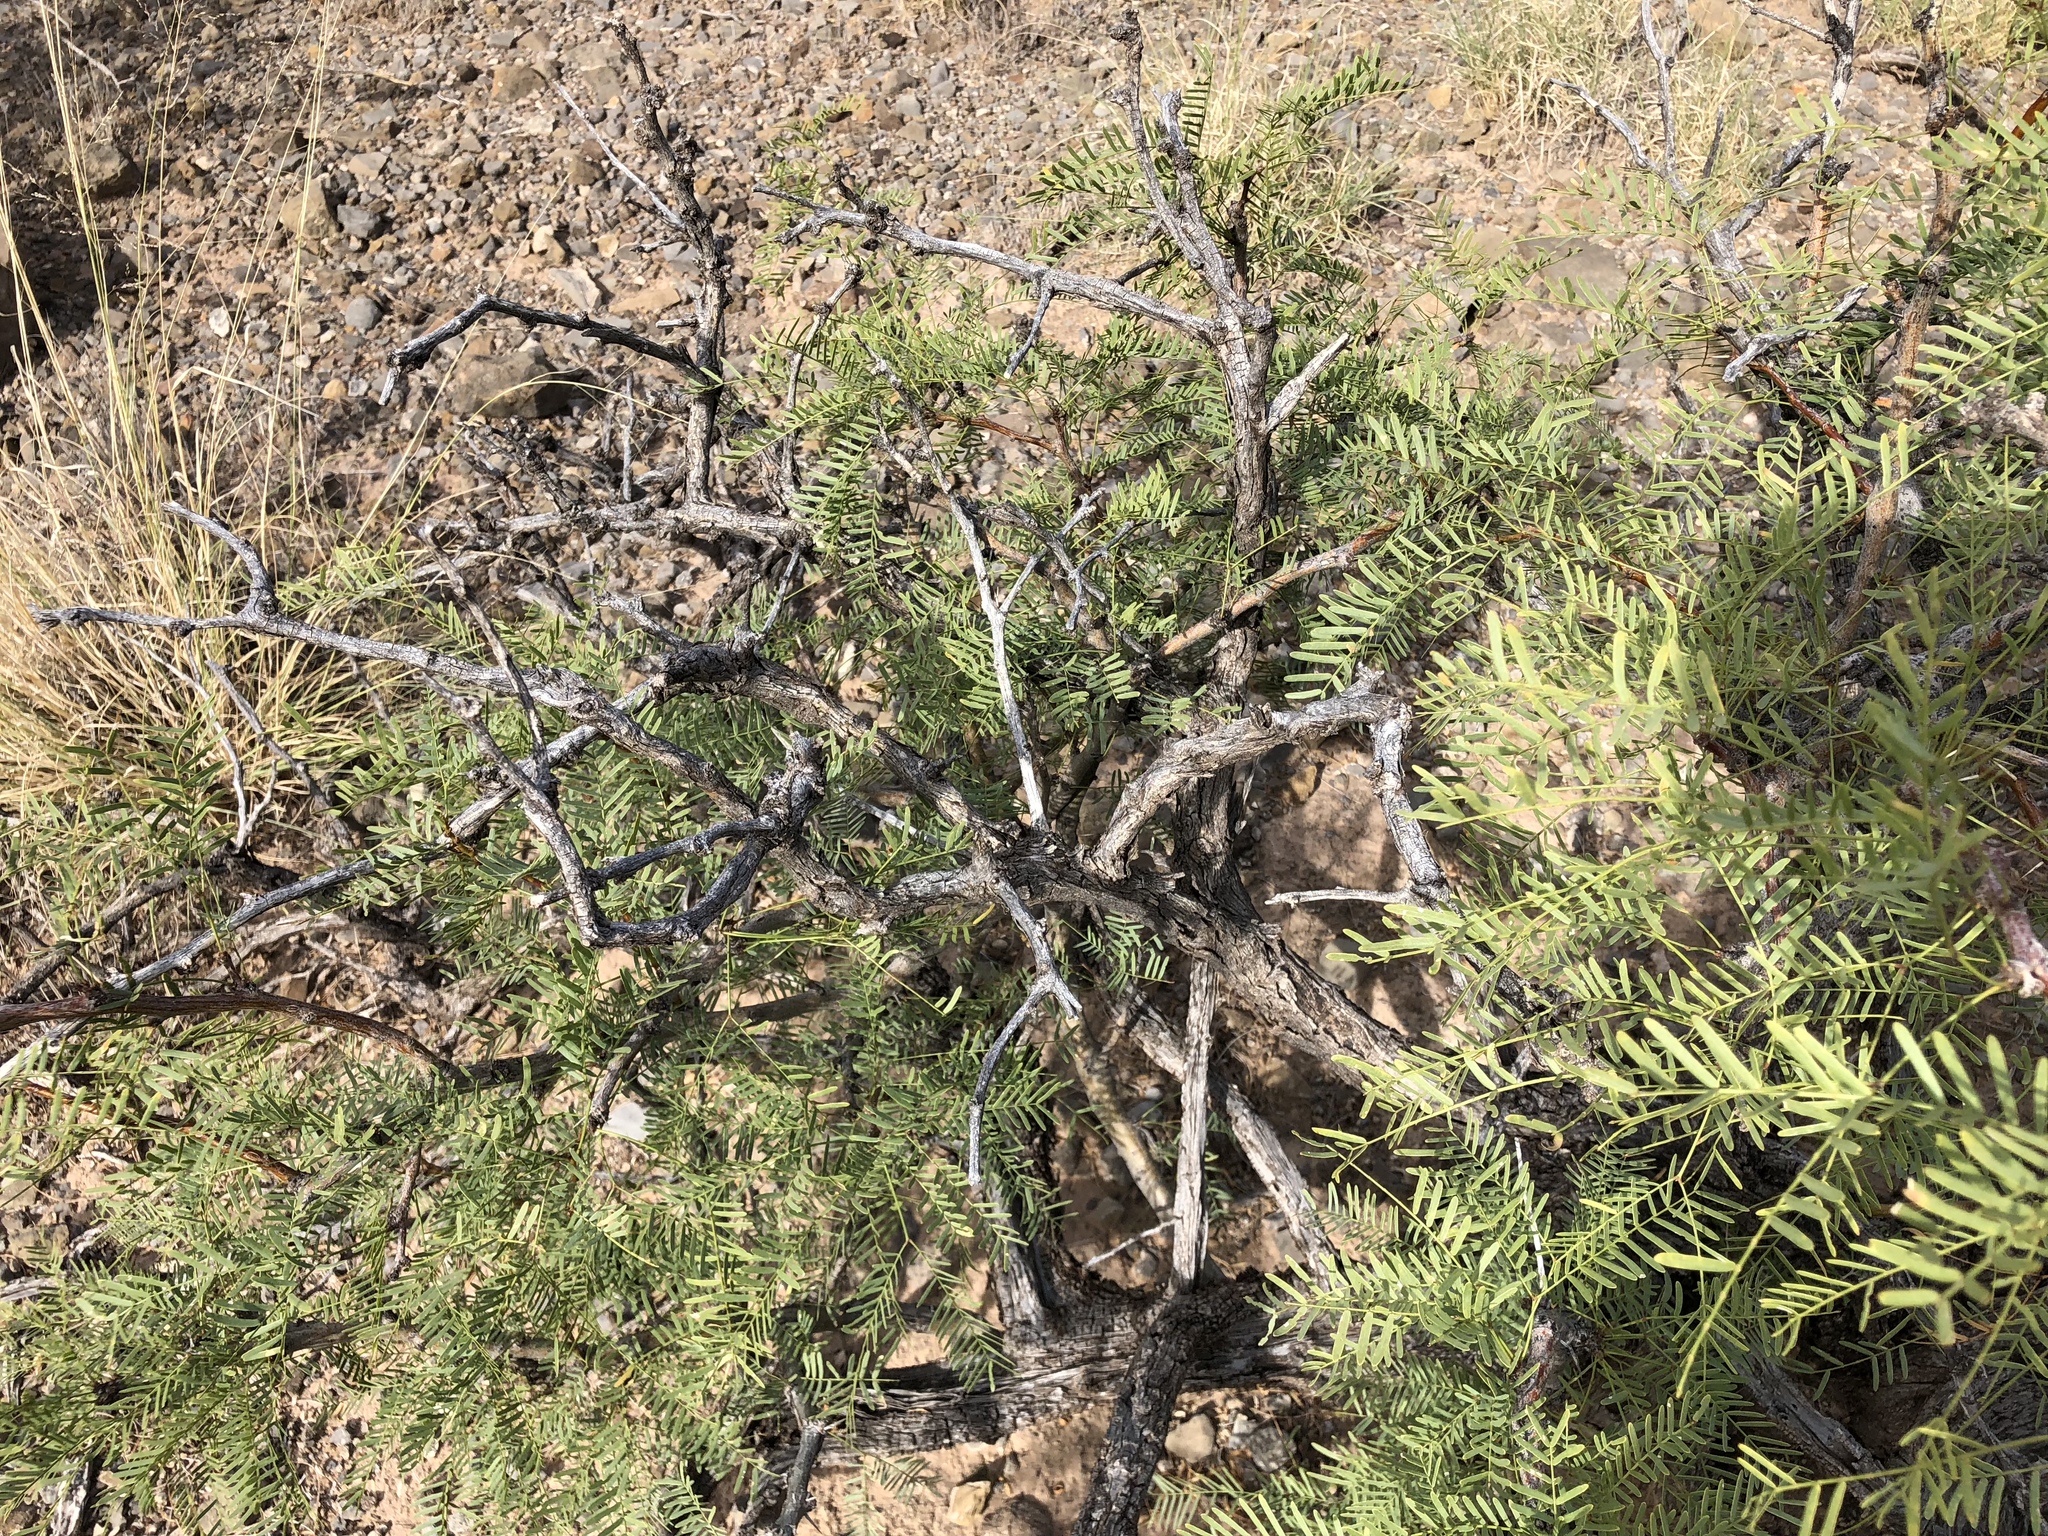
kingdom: Plantae
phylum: Tracheophyta
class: Magnoliopsida
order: Fabales
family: Fabaceae
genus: Prosopis
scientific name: Prosopis glandulosa
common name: Honey mesquite
